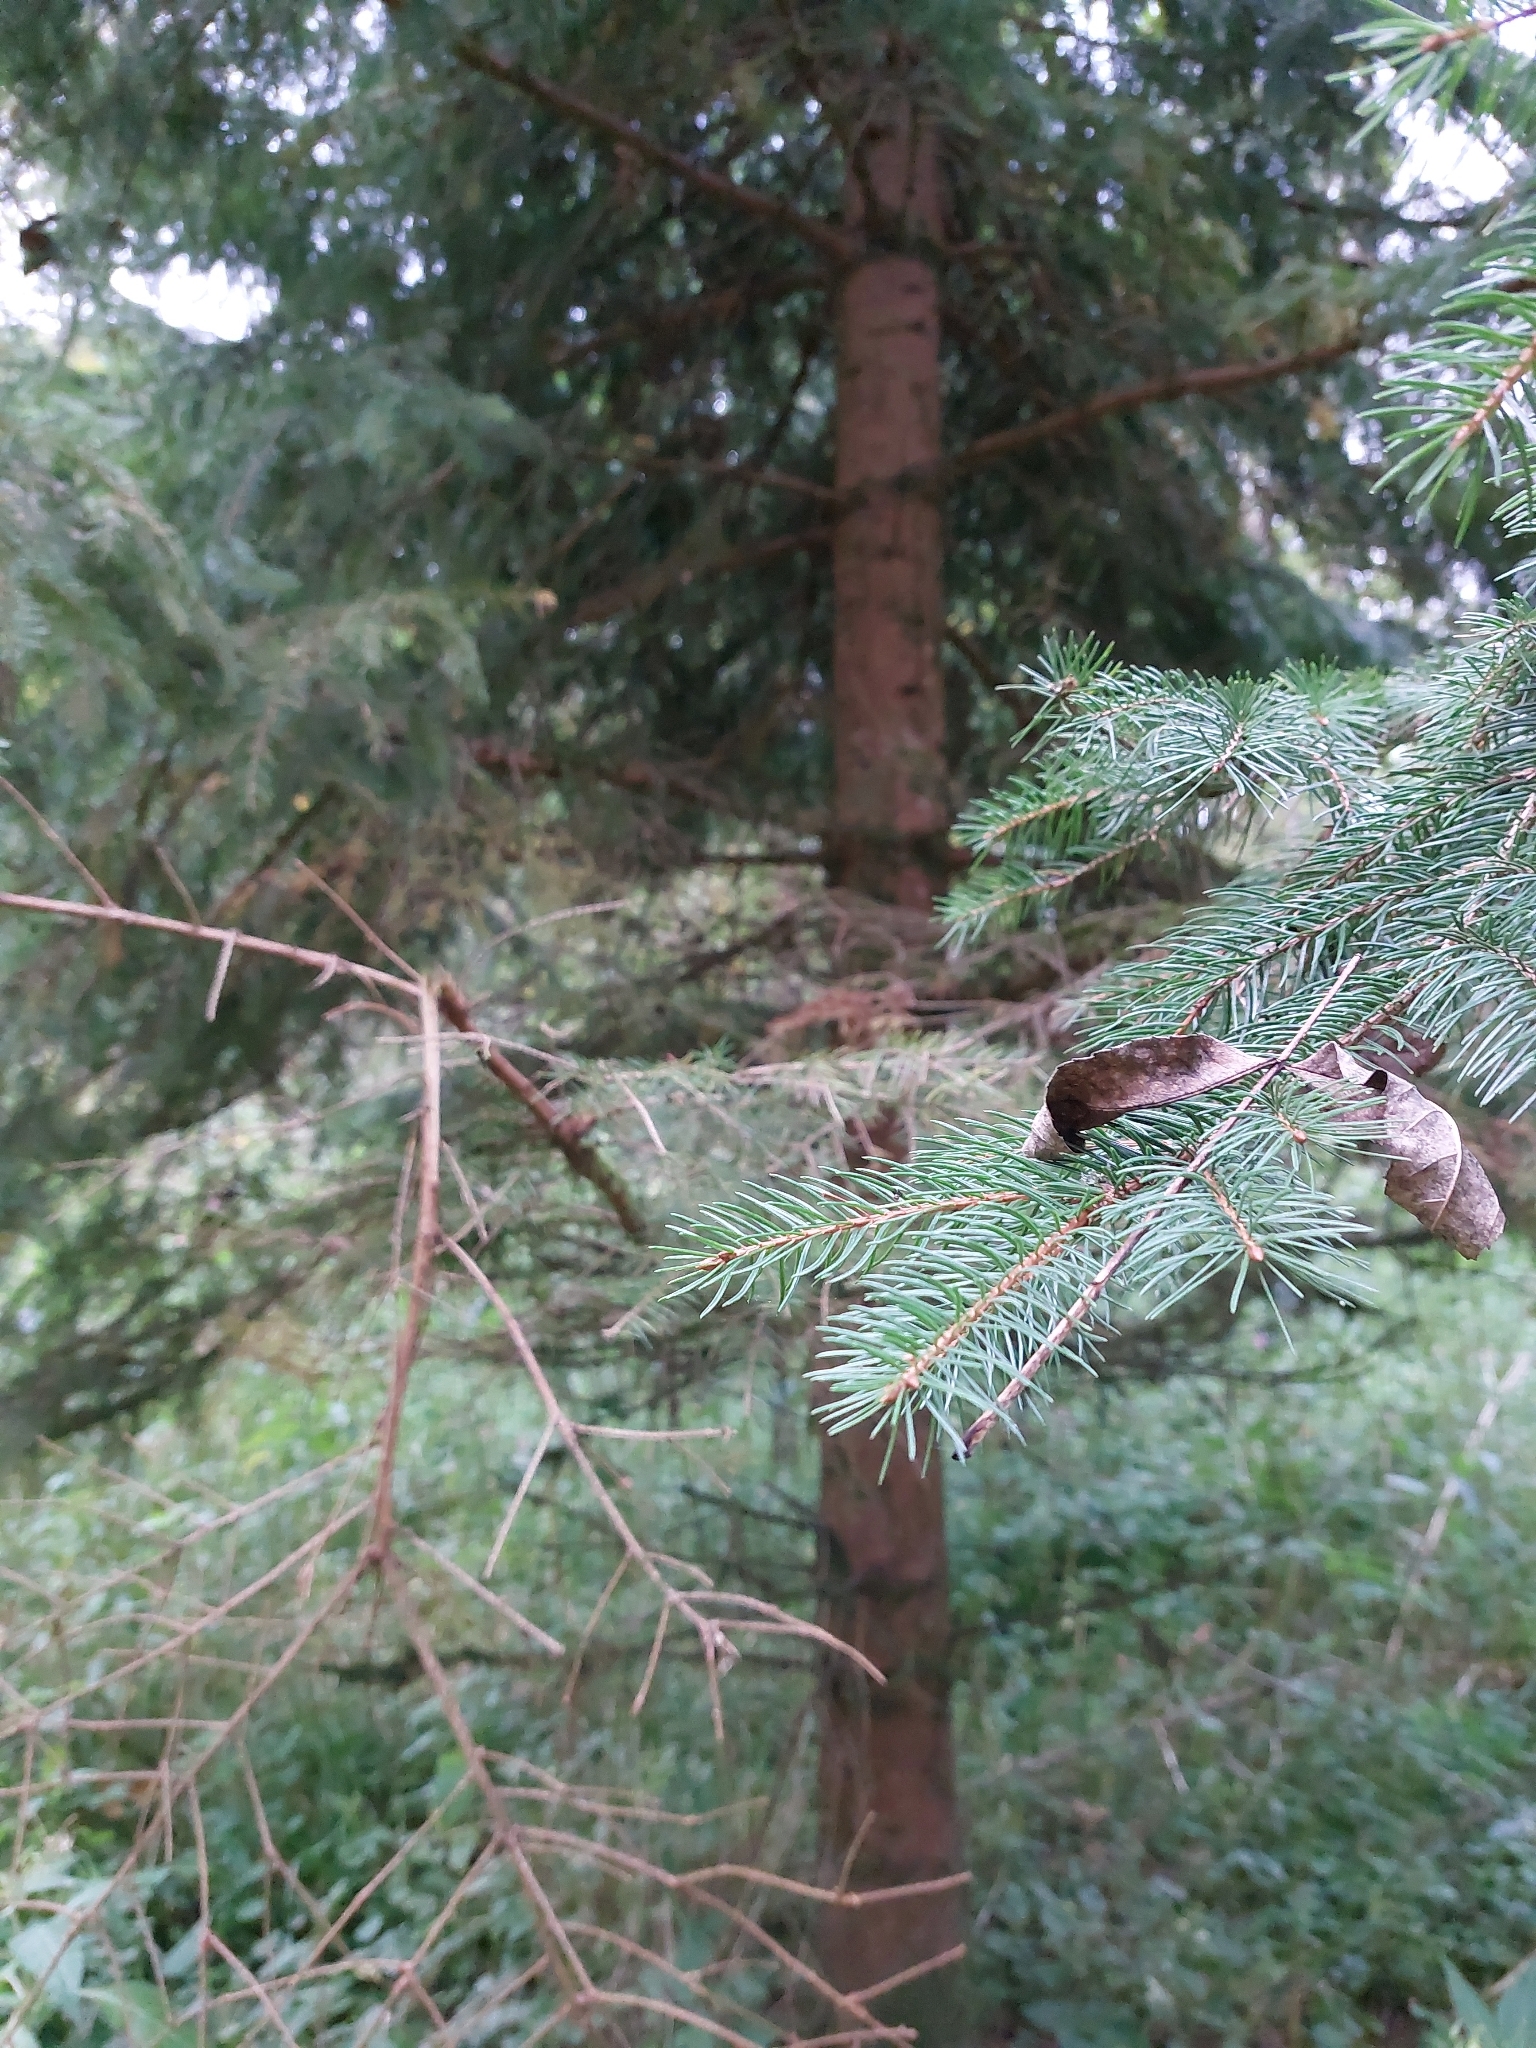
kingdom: Plantae
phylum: Tracheophyta
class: Pinopsida
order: Pinales
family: Pinaceae
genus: Picea
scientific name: Picea abies
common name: Norway spruce
